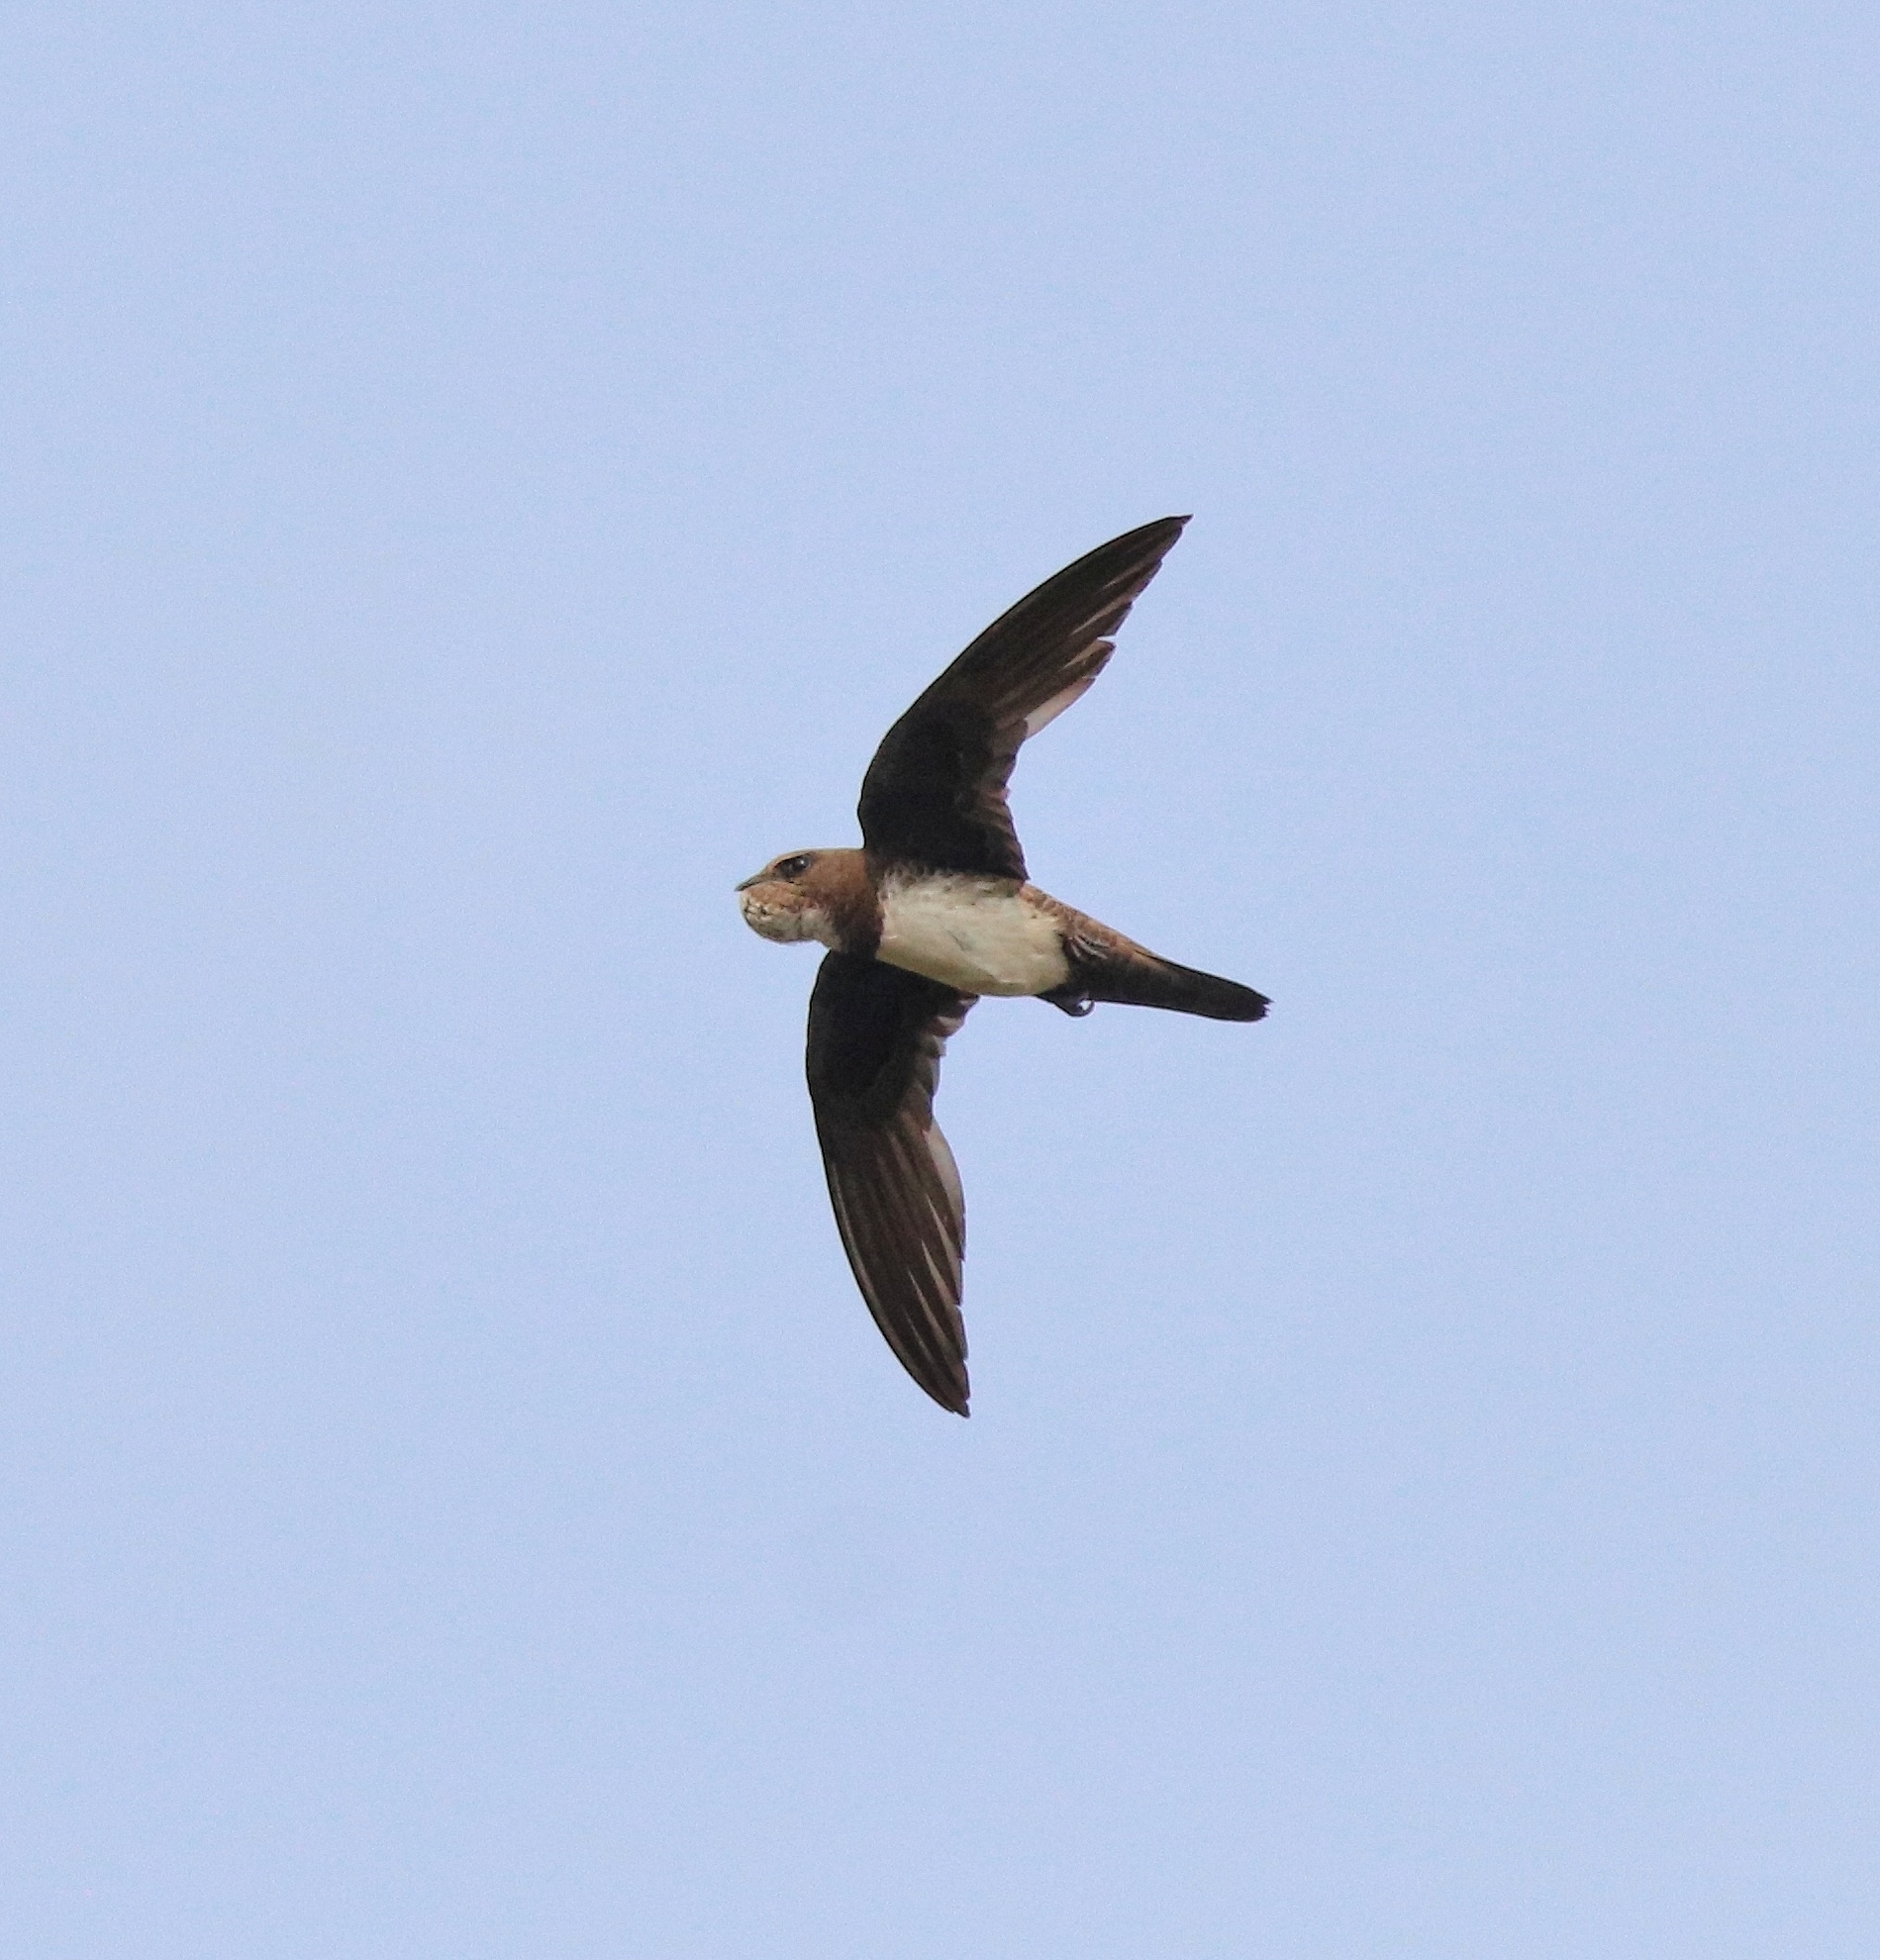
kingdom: Animalia
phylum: Chordata
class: Aves
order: Apodiformes
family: Apodidae
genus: Tachymarptis
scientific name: Tachymarptis melba
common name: Alpine swift
